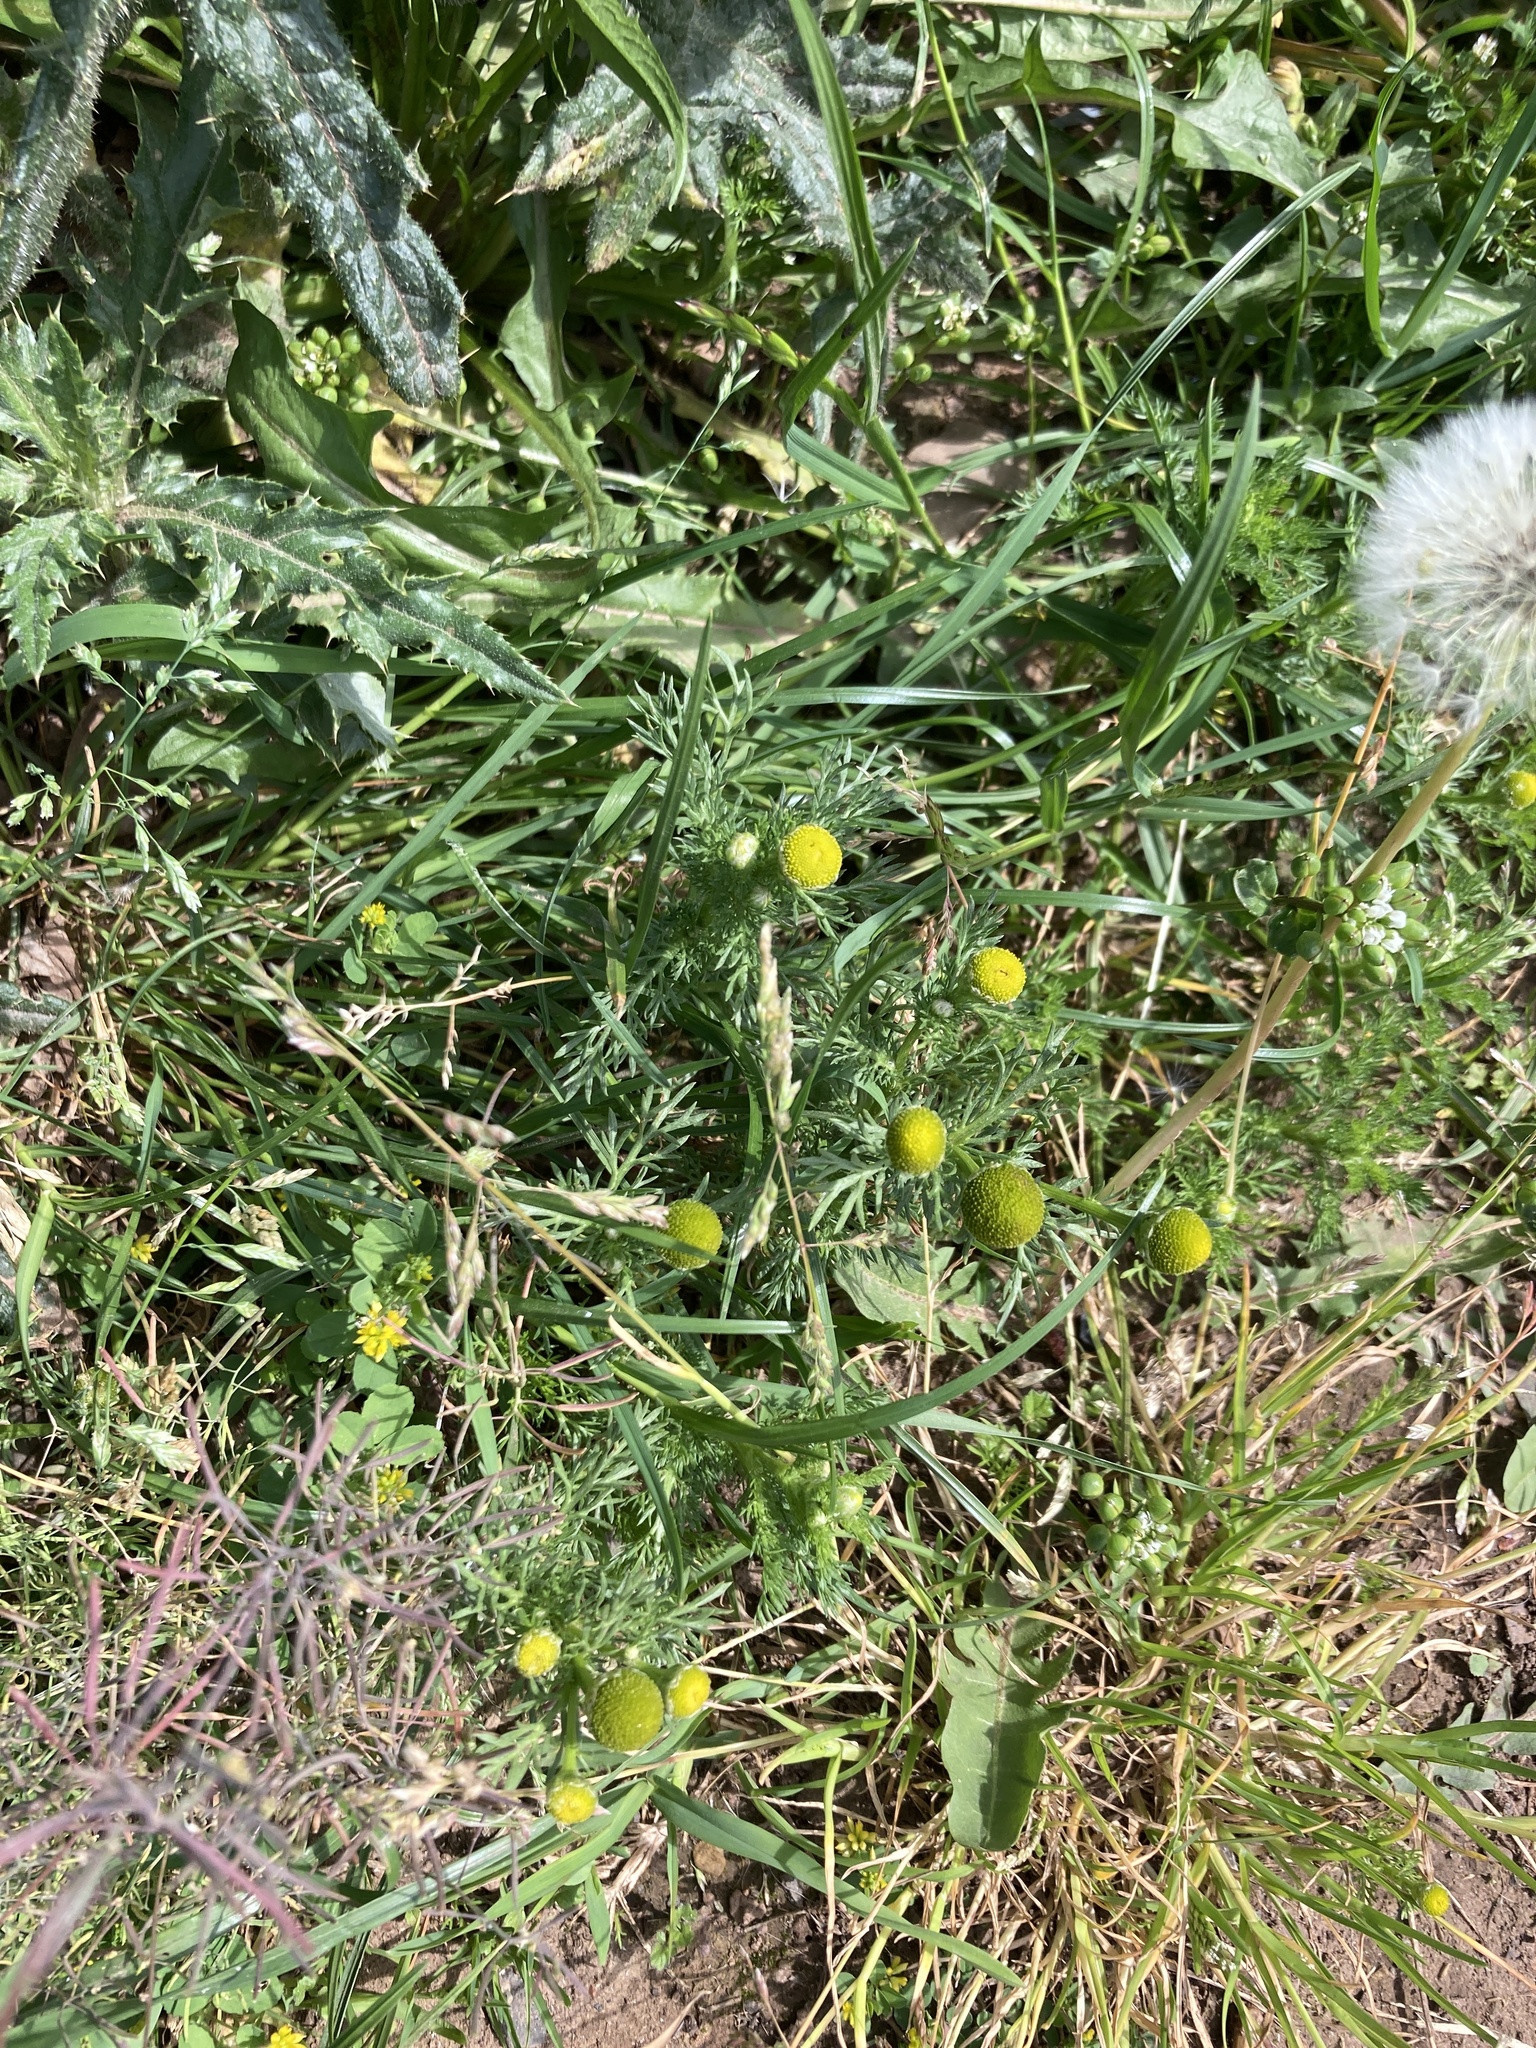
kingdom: Plantae
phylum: Tracheophyta
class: Magnoliopsida
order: Asterales
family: Asteraceae
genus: Matricaria
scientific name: Matricaria discoidea
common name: Disc mayweed
